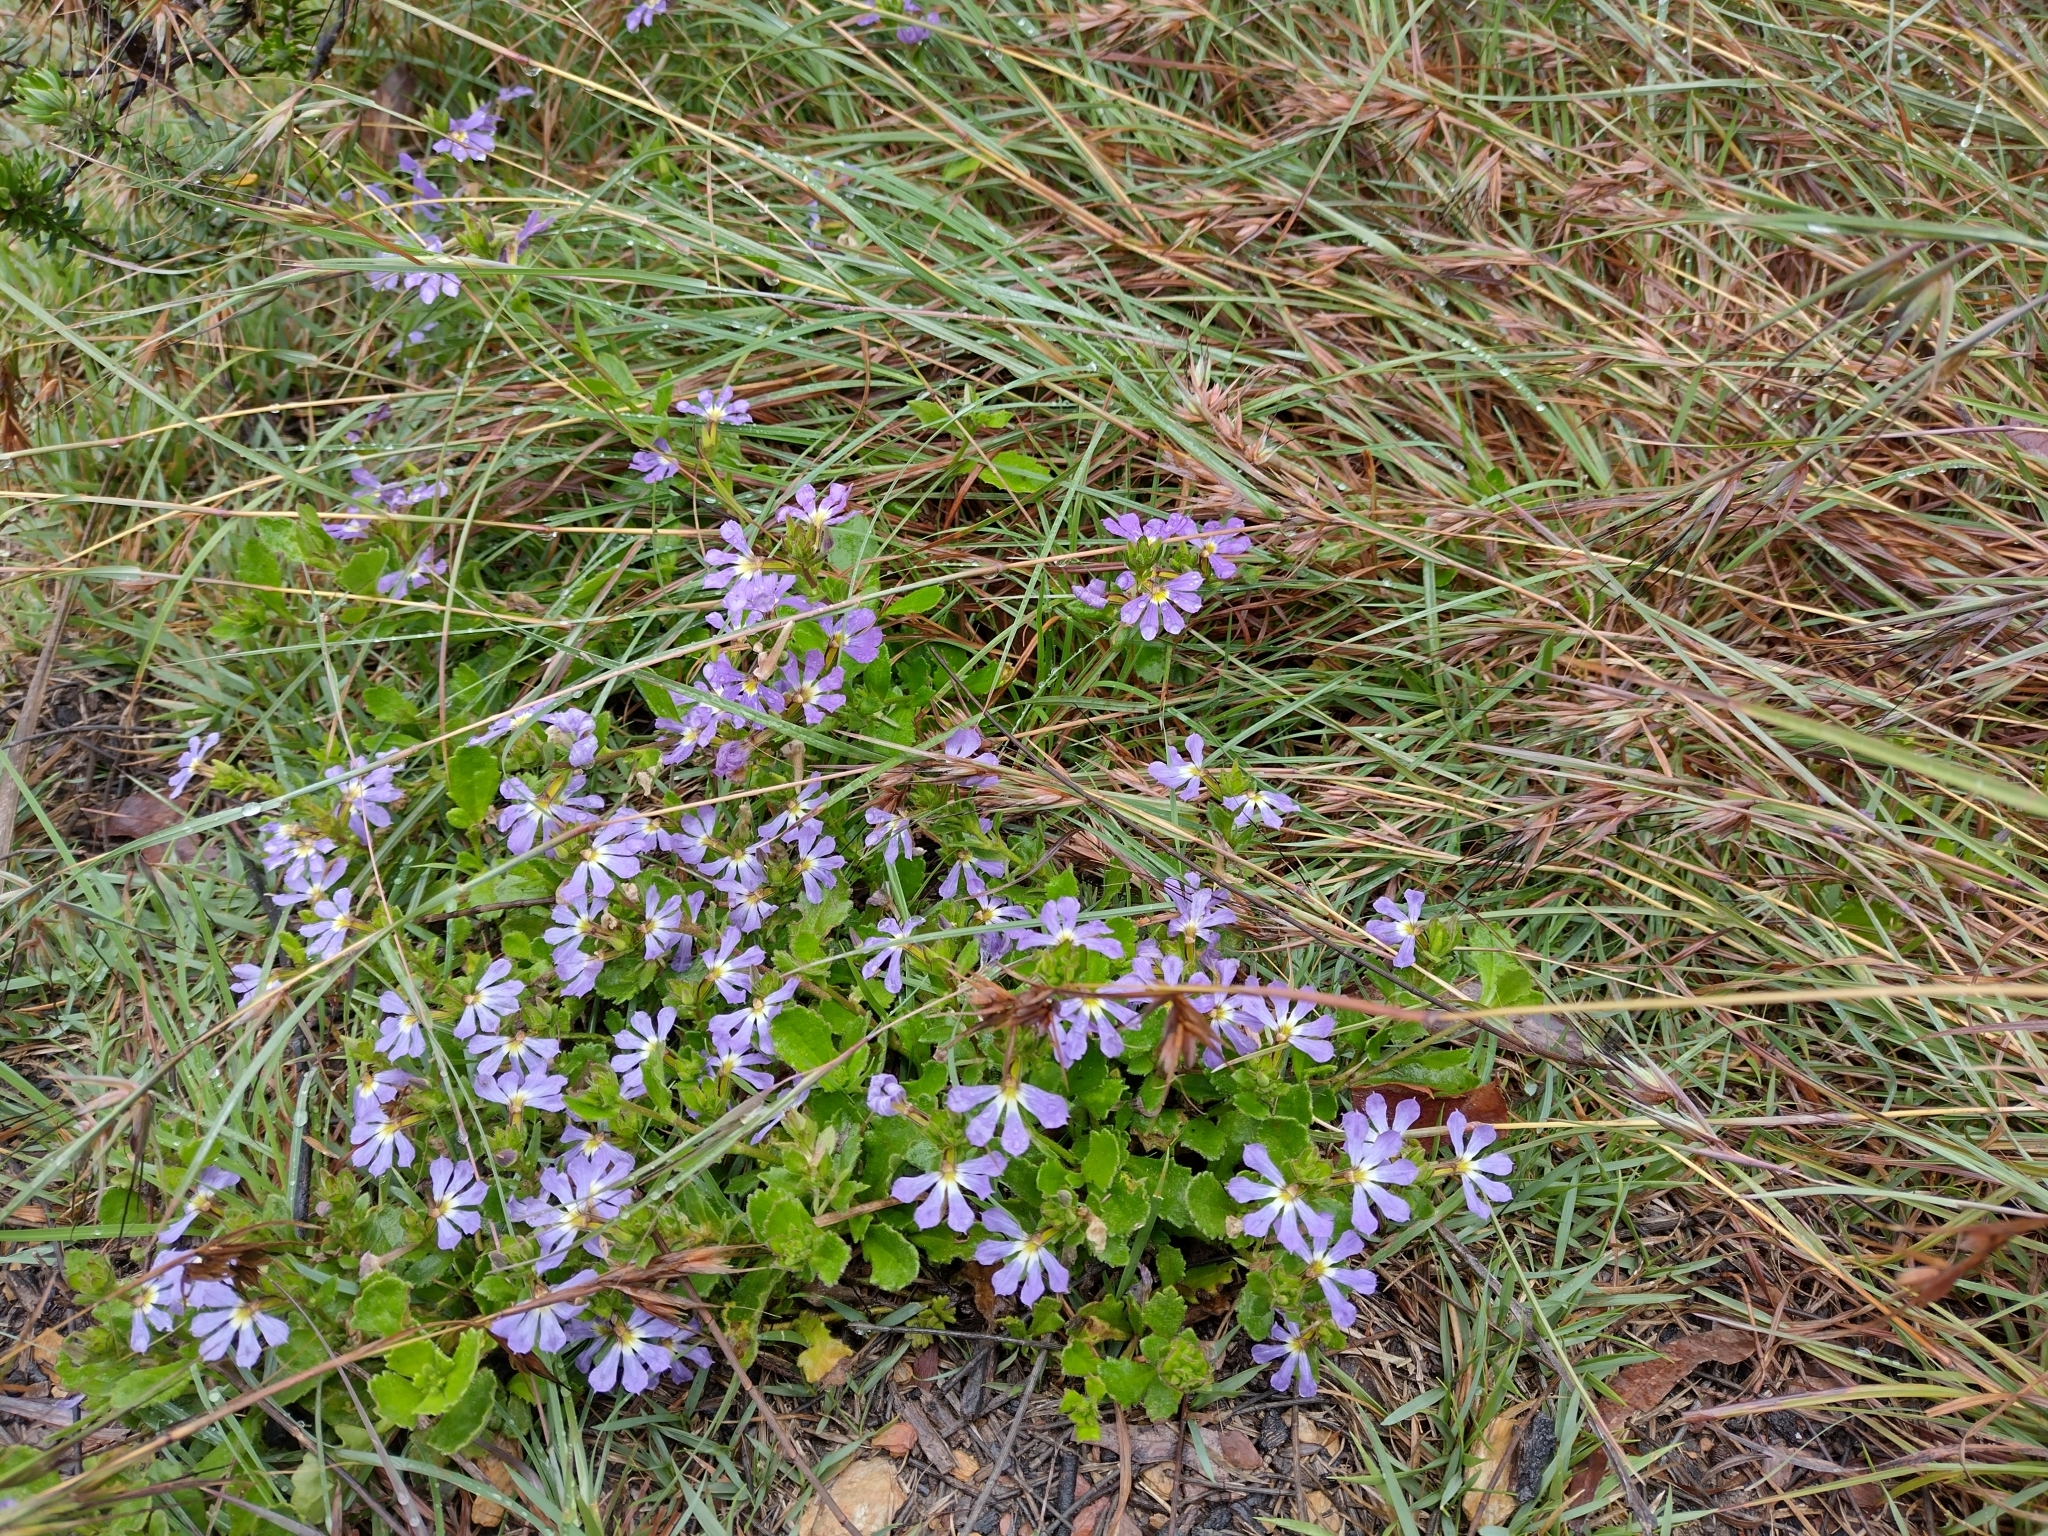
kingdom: Plantae
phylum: Tracheophyta
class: Magnoliopsida
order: Asterales
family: Goodeniaceae
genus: Scaevola
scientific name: Scaevola aemula
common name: Common fanflower
